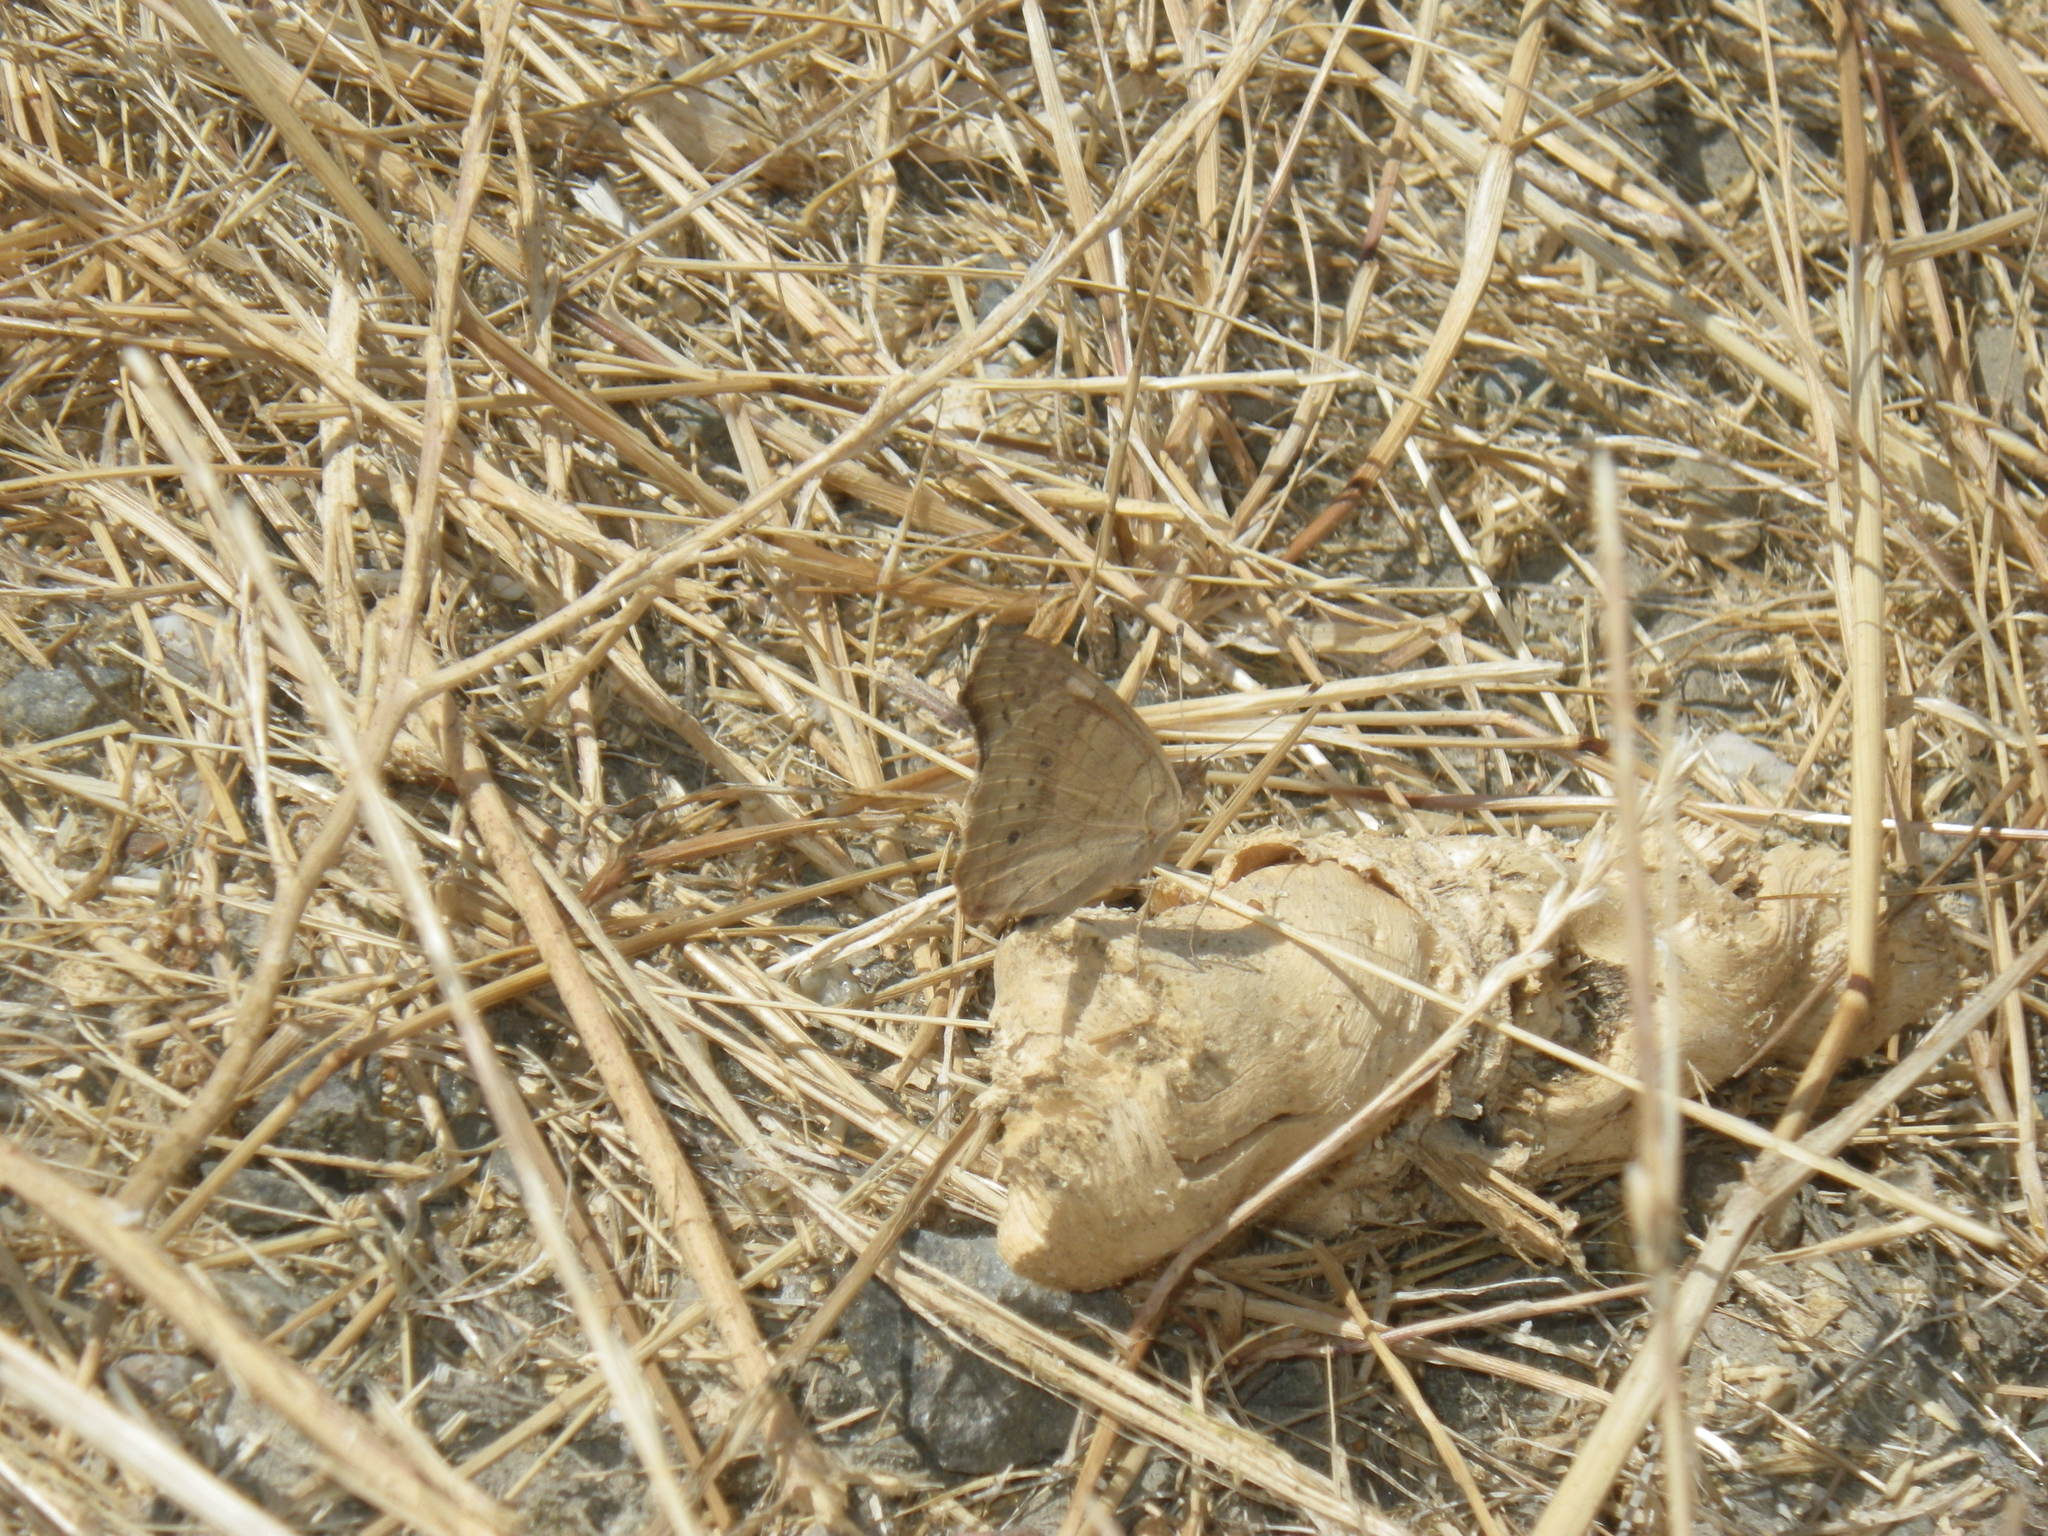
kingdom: Animalia
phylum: Arthropoda
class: Insecta
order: Lepidoptera
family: Nymphalidae
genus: Junonia
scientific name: Junonia grisea
